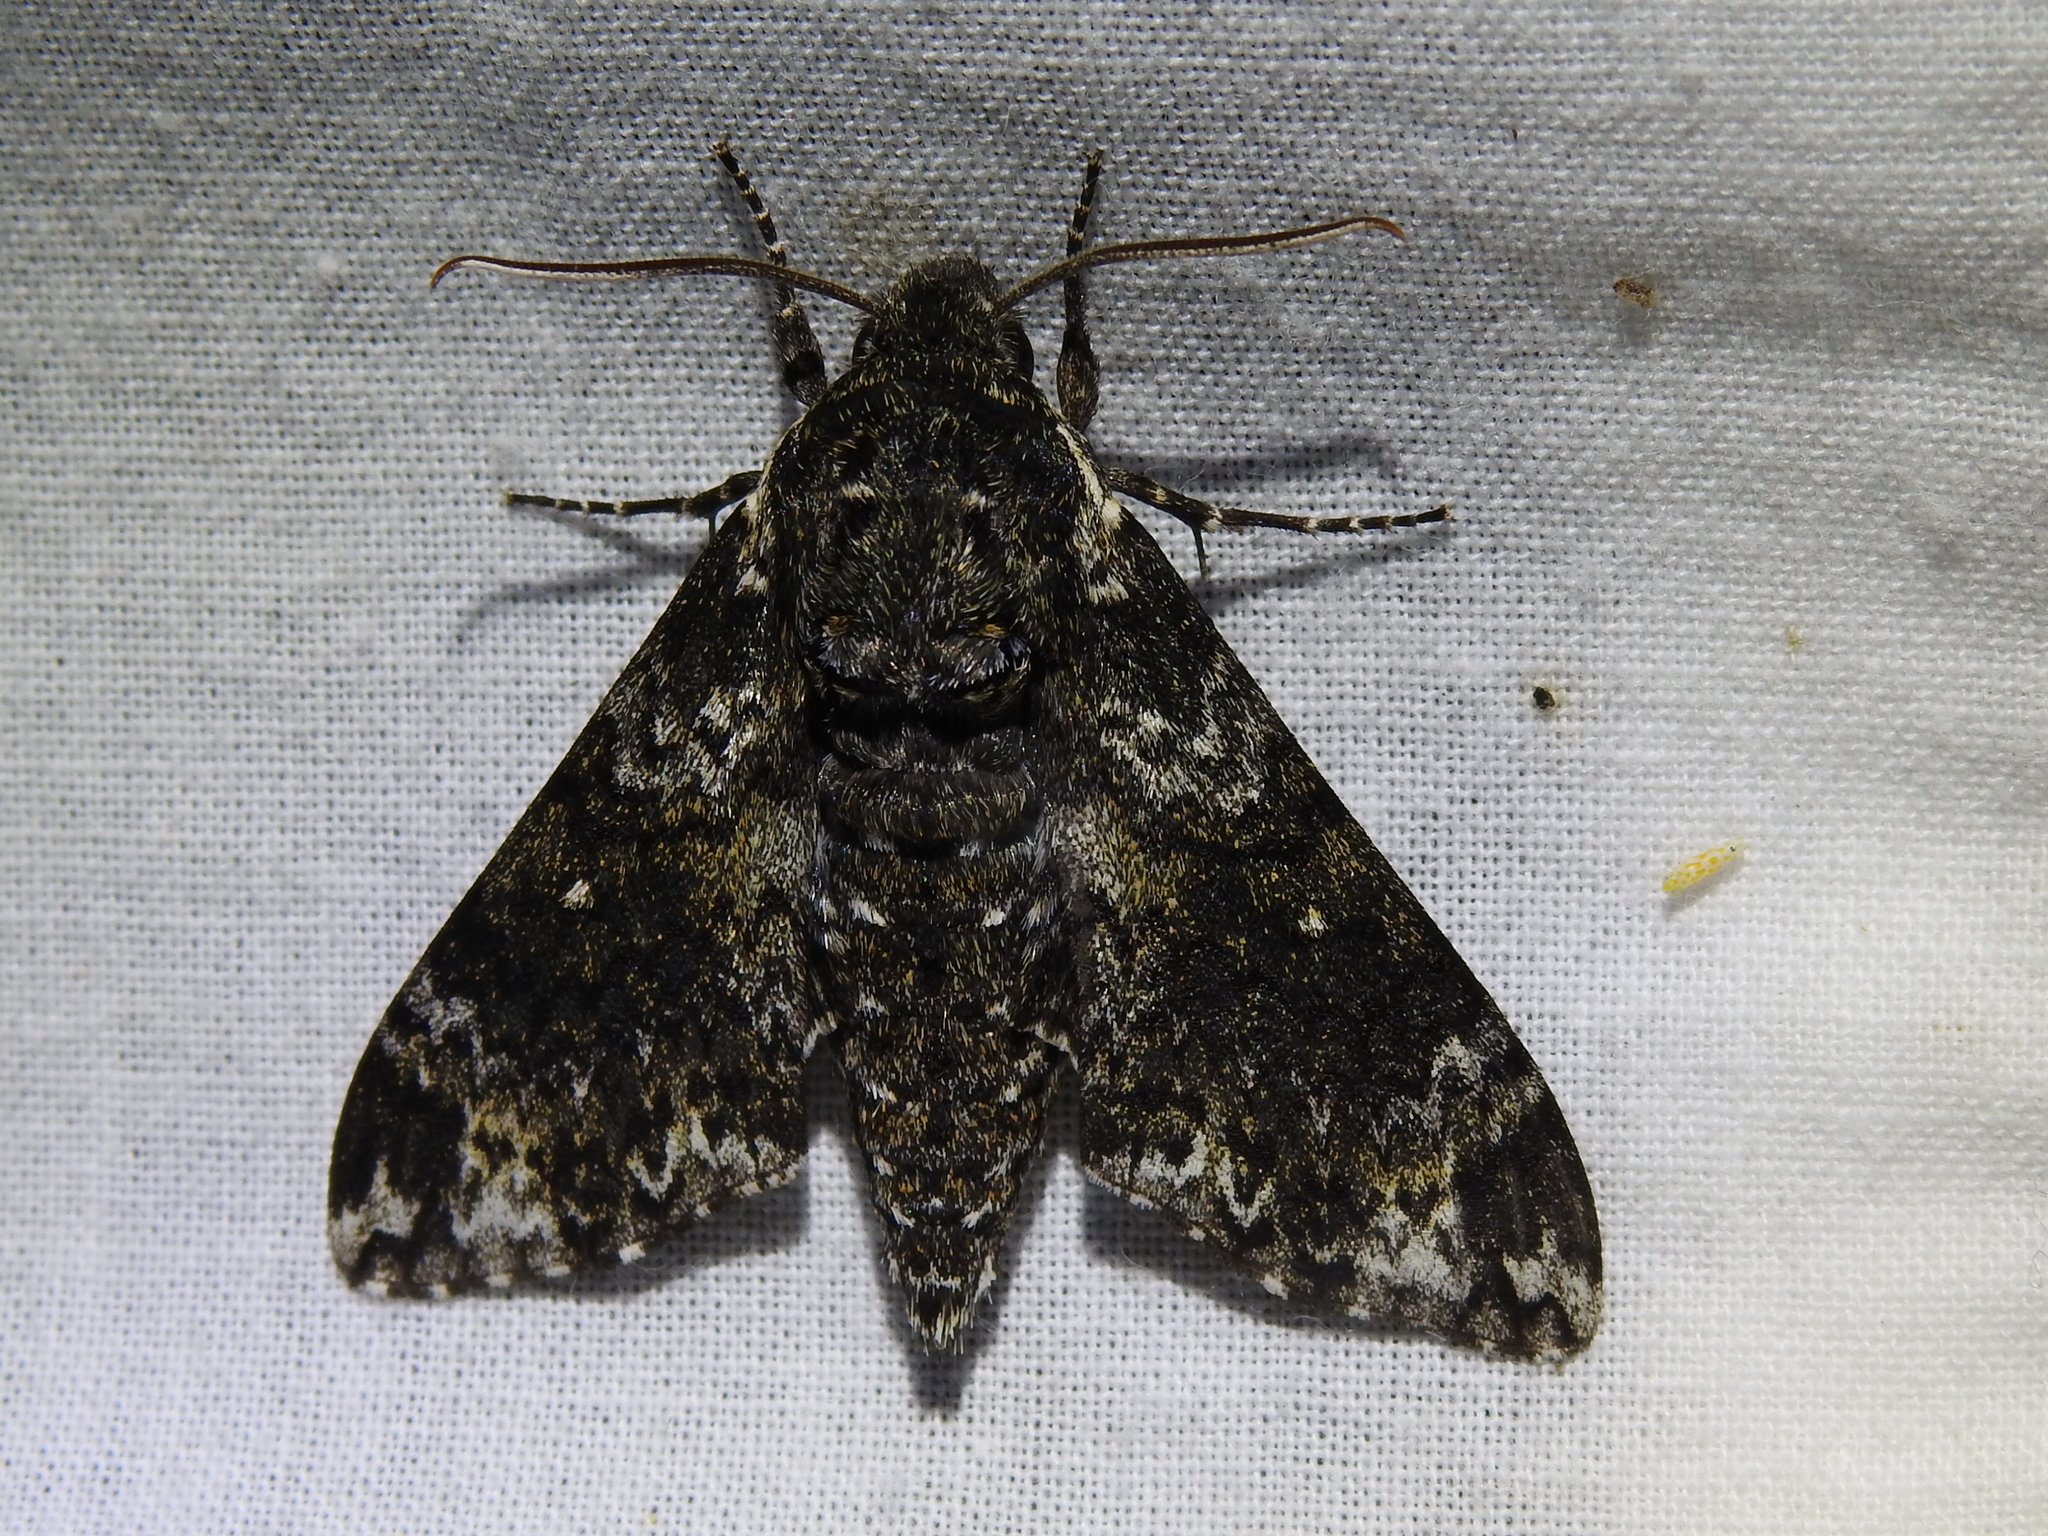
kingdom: Animalia
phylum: Arthropoda
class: Insecta
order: Lepidoptera
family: Sphingidae
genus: Dolba
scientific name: Dolba hyloeus
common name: Pawpaw sphinx
